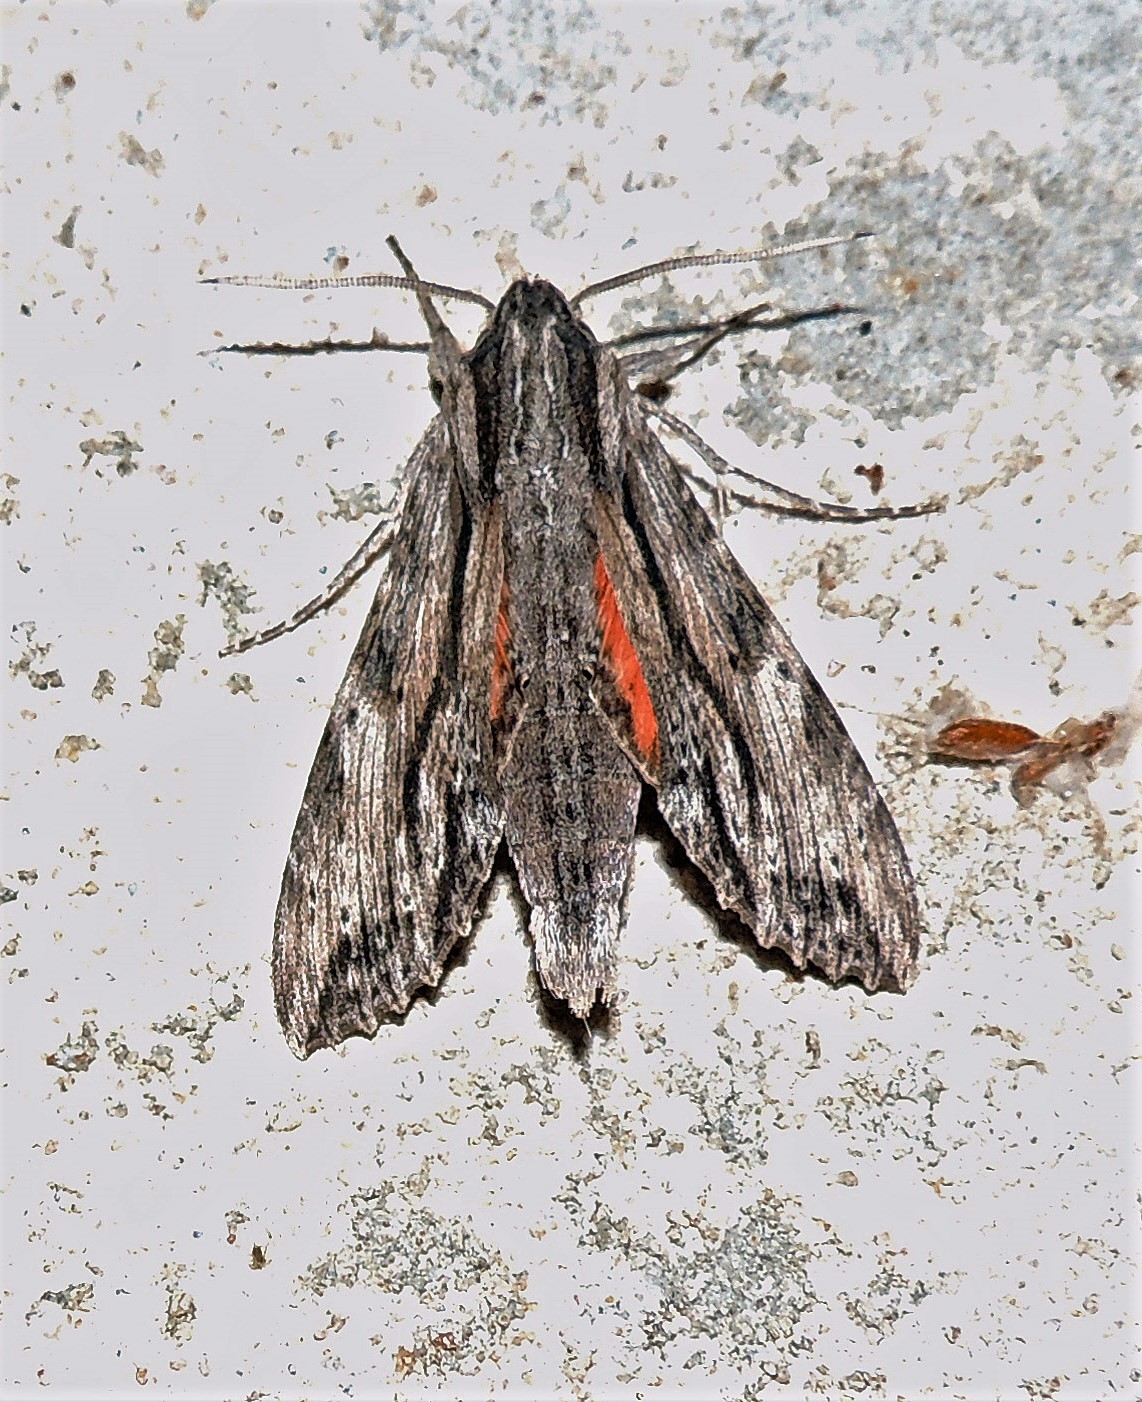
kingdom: Animalia
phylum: Arthropoda
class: Insecta
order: Lepidoptera
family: Sphingidae
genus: Erinnyis
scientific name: Erinnyis obscura
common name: Obscure sphinx
